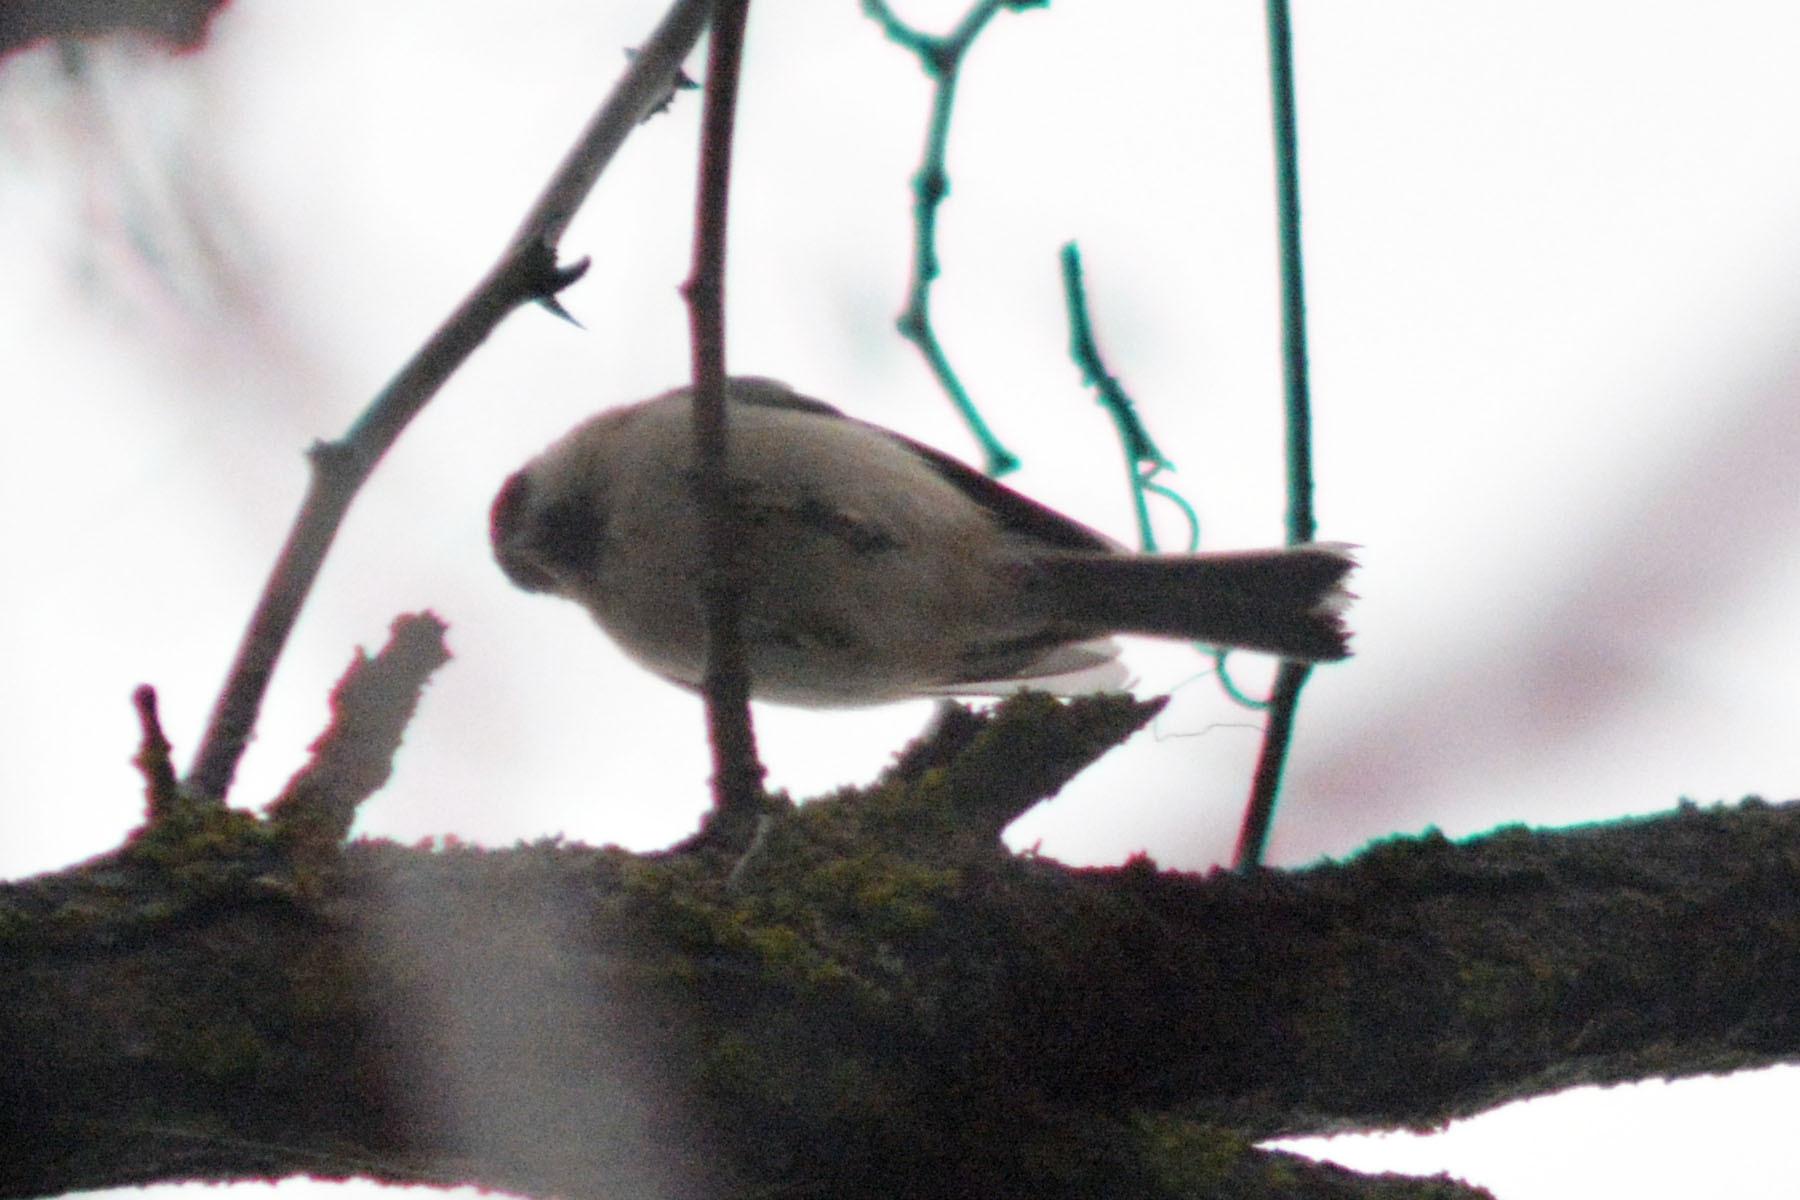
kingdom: Animalia
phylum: Chordata
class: Aves
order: Passeriformes
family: Paridae
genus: Poecile
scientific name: Poecile palustris
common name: Marsh tit
